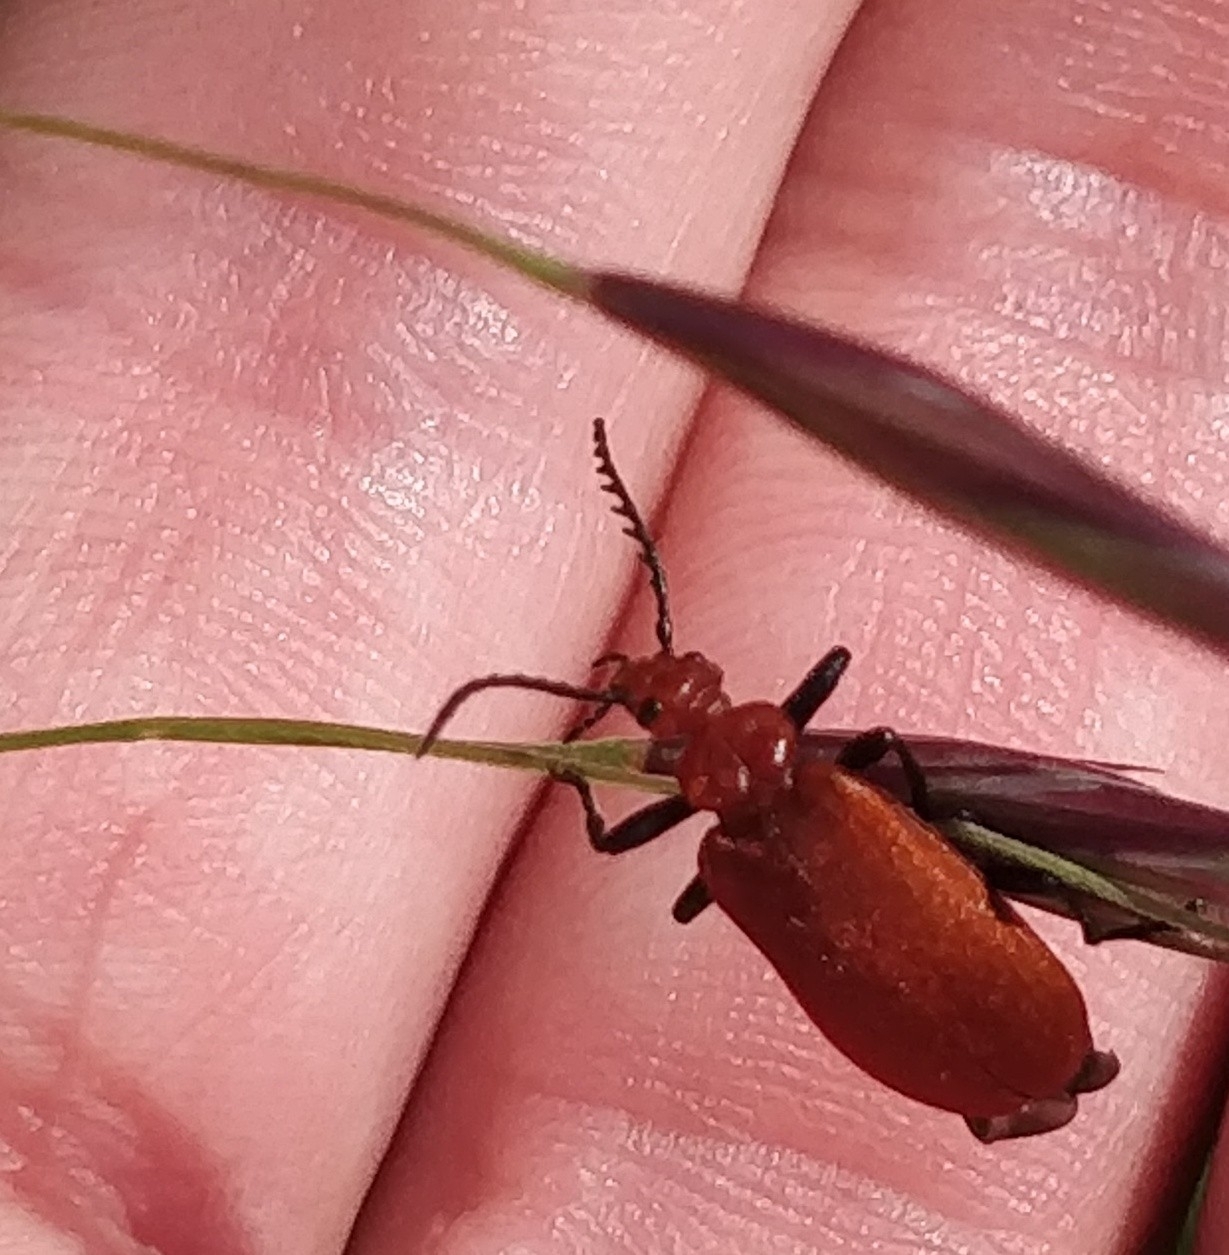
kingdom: Animalia
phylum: Arthropoda
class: Insecta
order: Coleoptera
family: Pyrochroidae
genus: Pyrochroa
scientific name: Pyrochroa serraticornis
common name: Red-headed cardinal beetle
